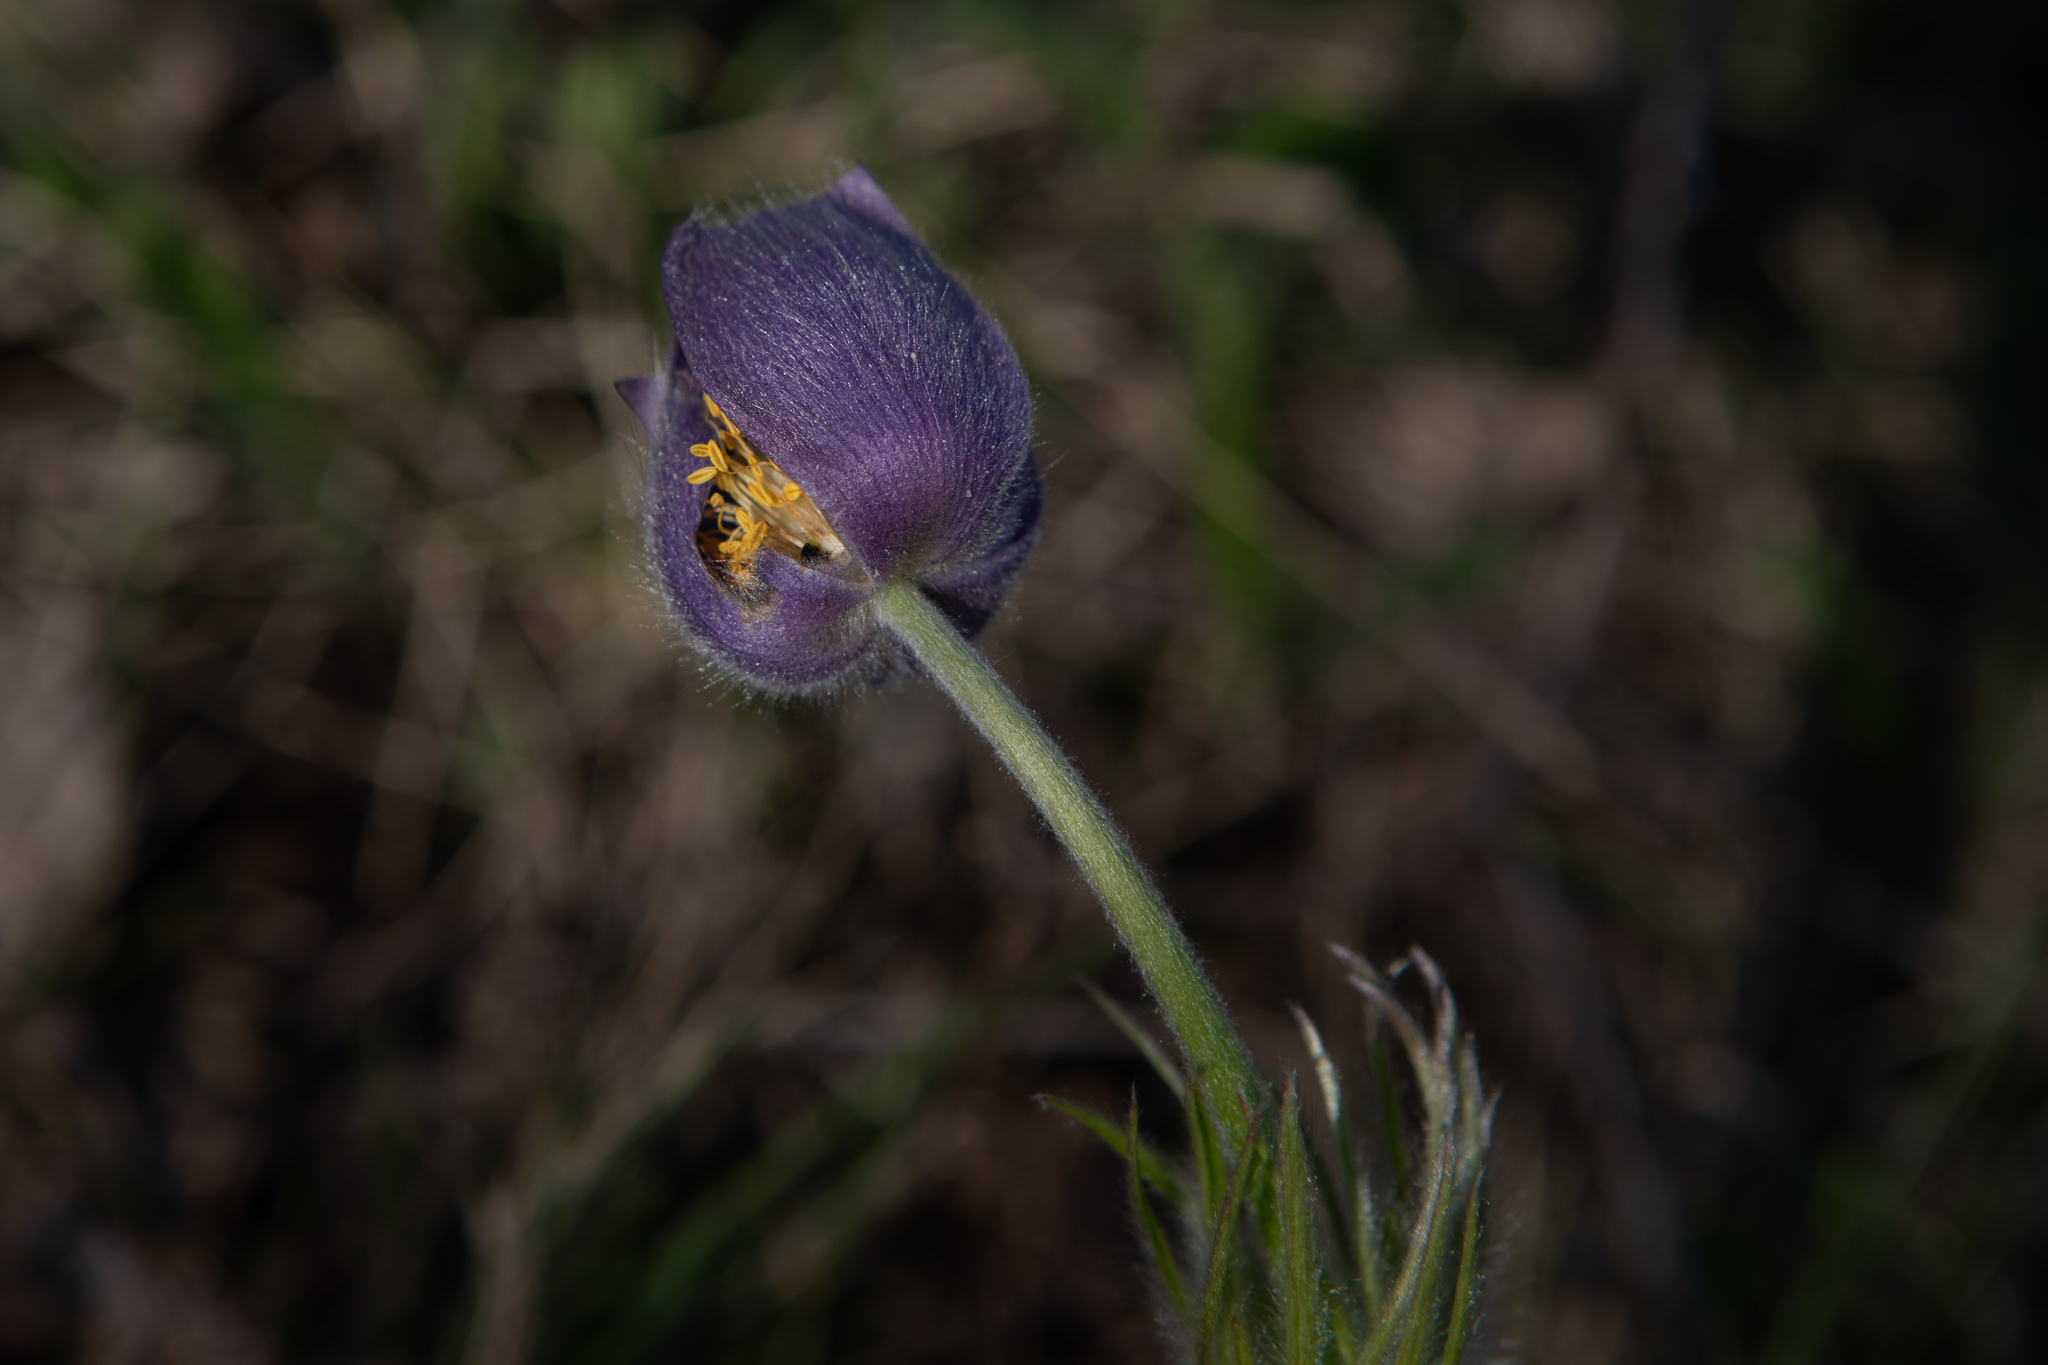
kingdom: Plantae
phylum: Tracheophyta
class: Magnoliopsida
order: Ranunculales
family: Ranunculaceae
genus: Pulsatilla
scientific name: Pulsatilla patens
